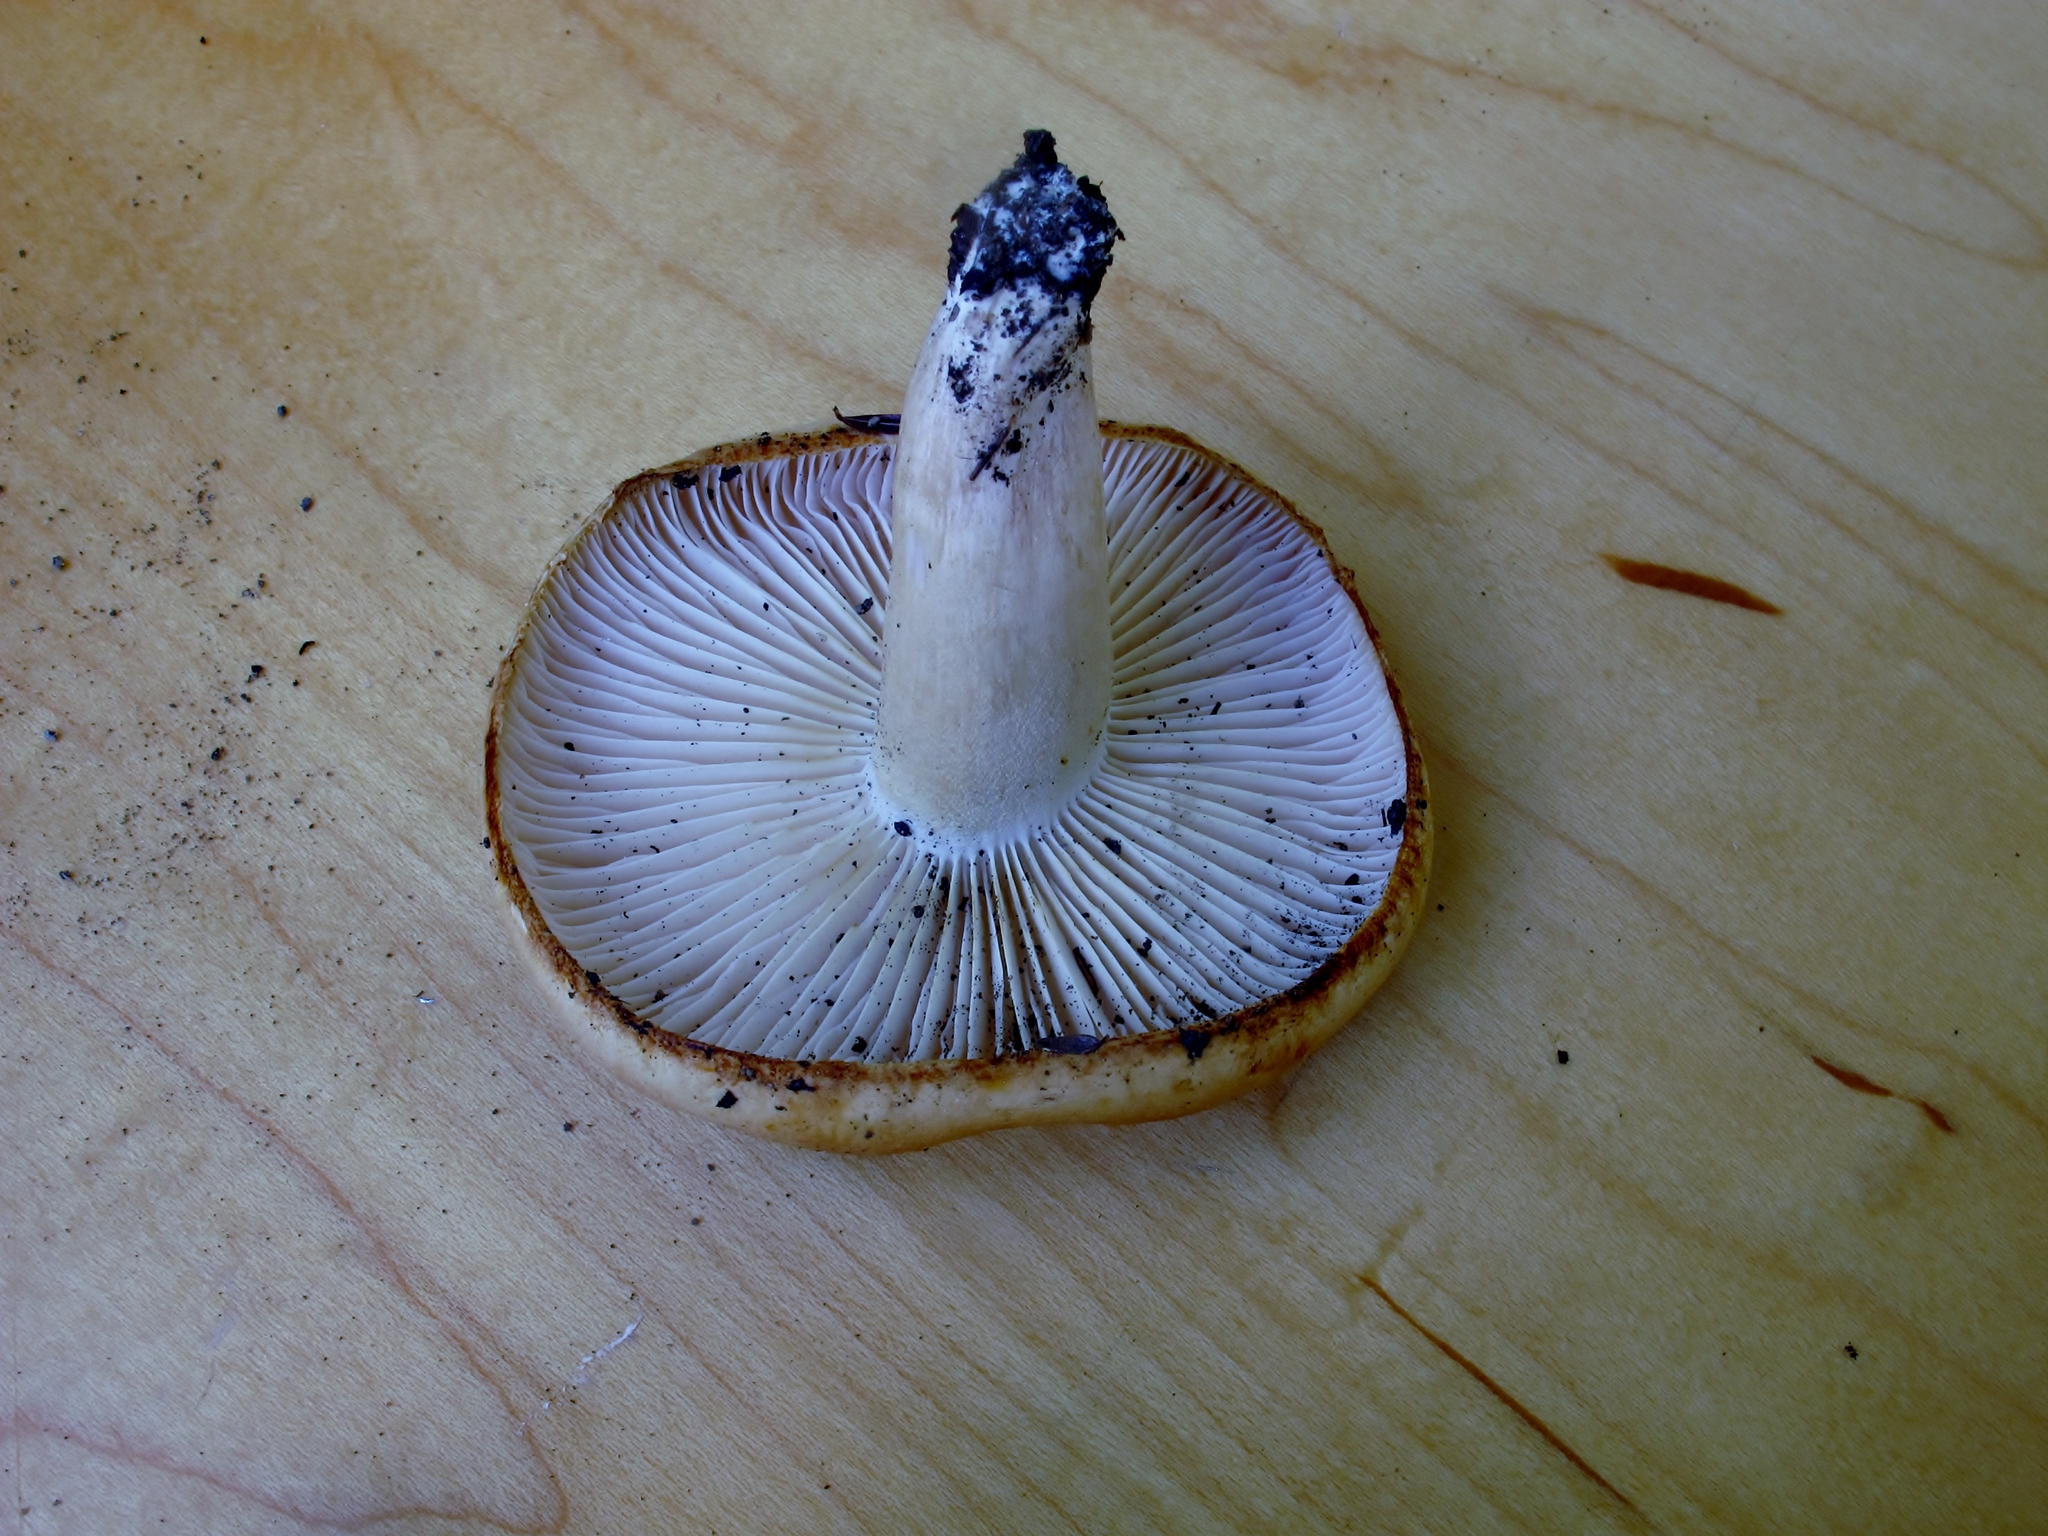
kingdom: Fungi
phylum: Basidiomycota
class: Agaricomycetes
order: Agaricales
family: Hygrophoraceae
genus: Hygrophorus
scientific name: Hygrophorus tennesseensis
